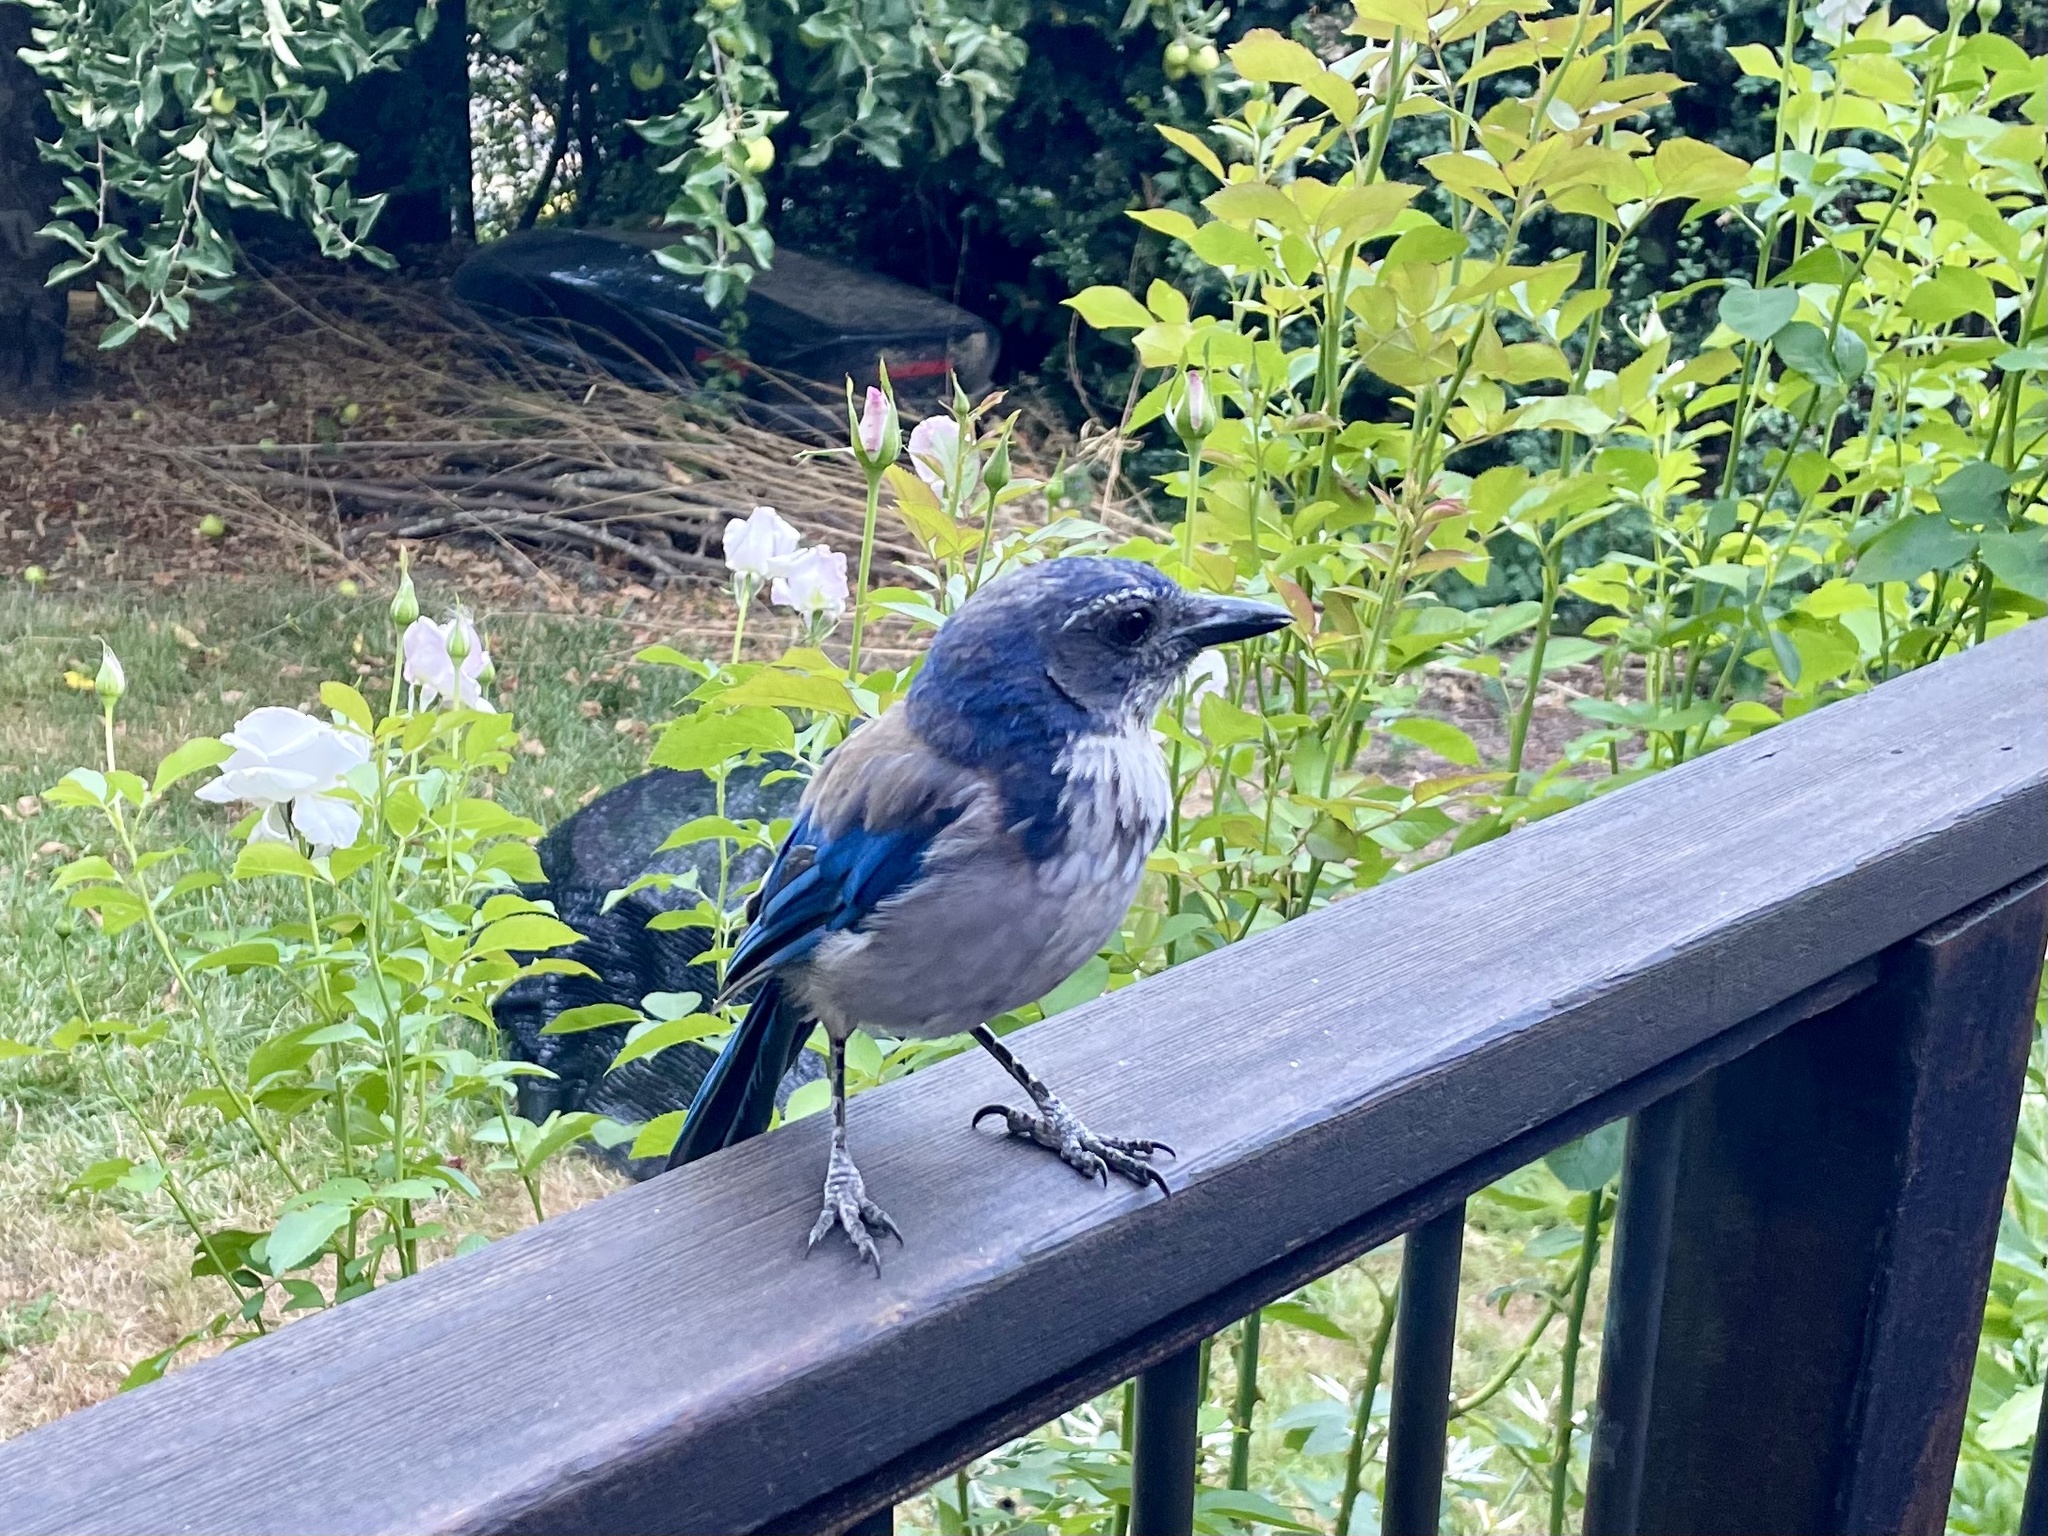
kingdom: Animalia
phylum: Chordata
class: Aves
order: Passeriformes
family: Corvidae
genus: Aphelocoma
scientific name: Aphelocoma californica
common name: California scrub-jay
